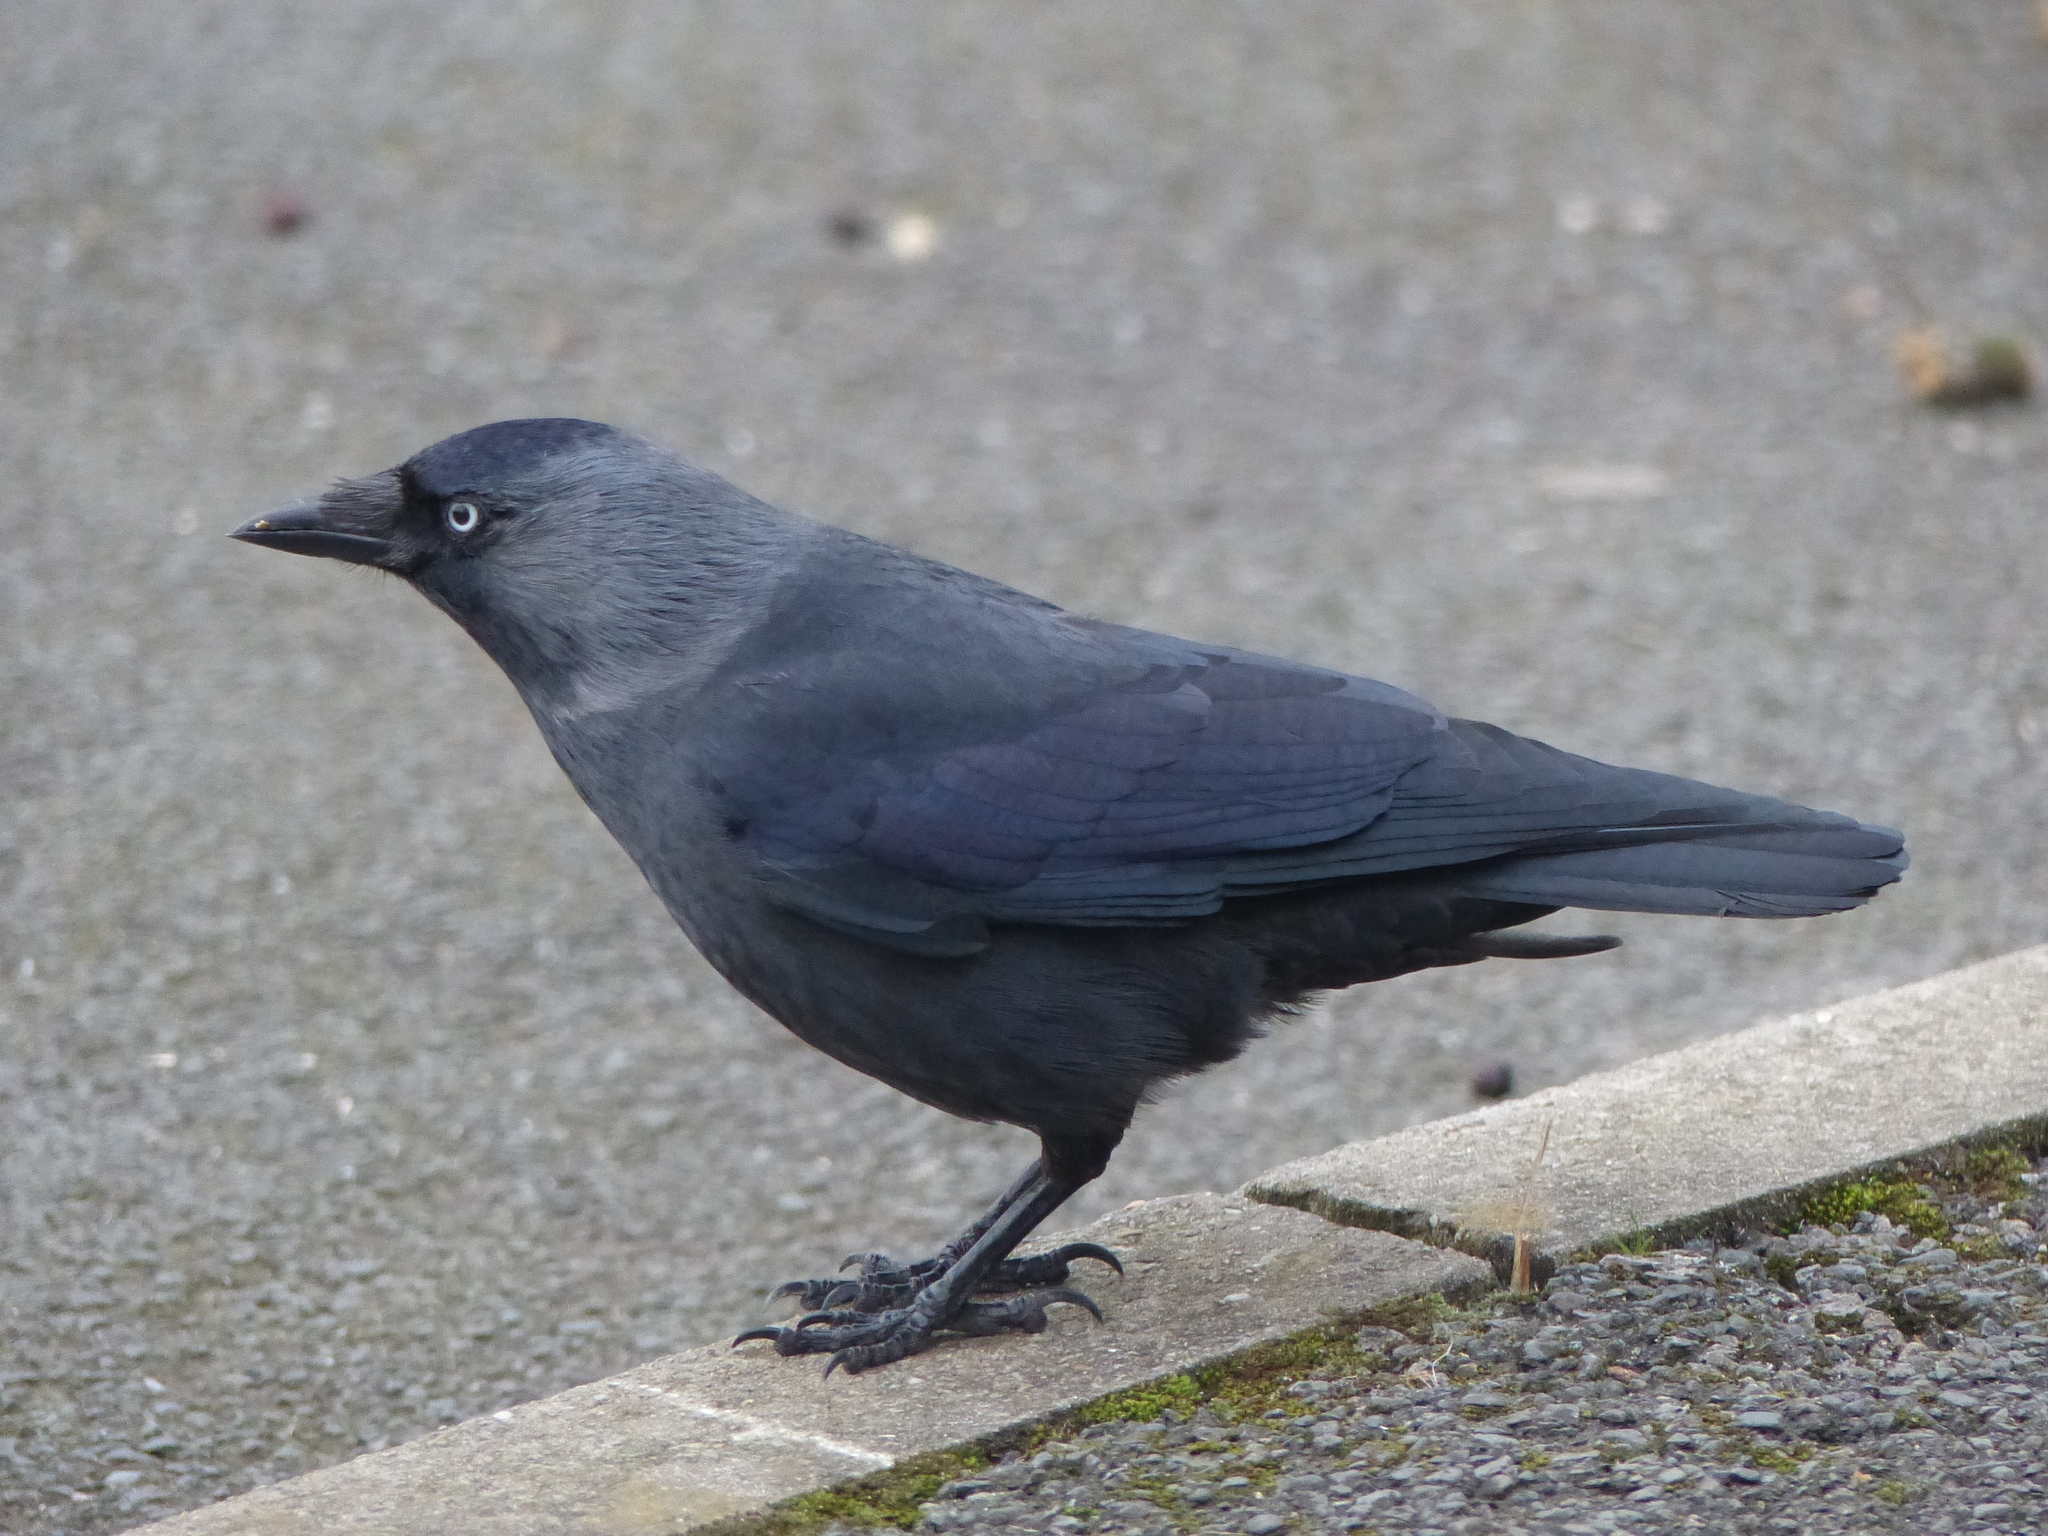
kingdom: Animalia
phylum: Chordata
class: Aves
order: Passeriformes
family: Corvidae
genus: Coloeus
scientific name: Coloeus monedula
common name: Western jackdaw
